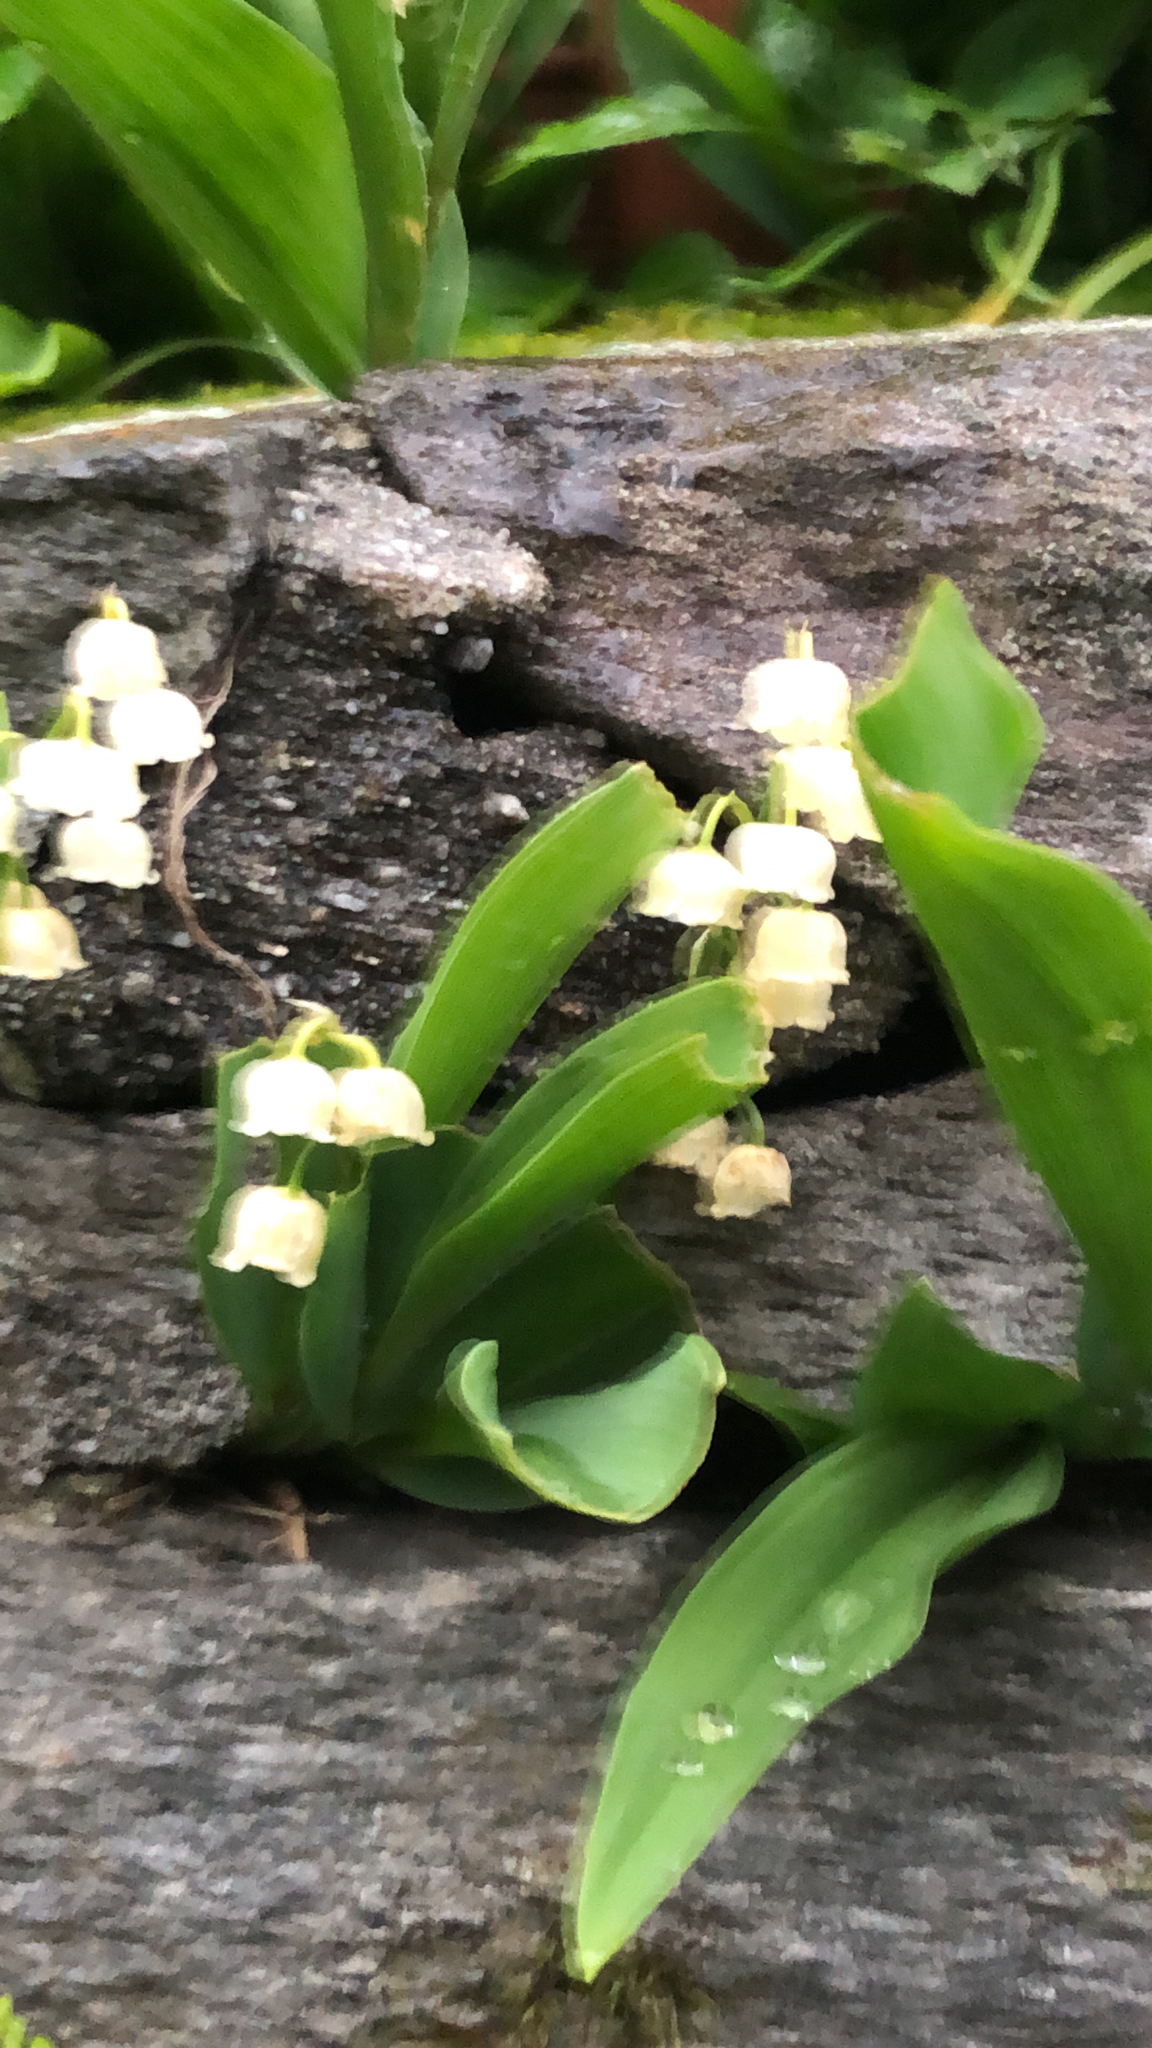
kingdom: Plantae
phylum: Tracheophyta
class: Liliopsida
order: Asparagales
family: Asparagaceae
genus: Convallaria
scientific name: Convallaria majalis
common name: Lily-of-the-valley
